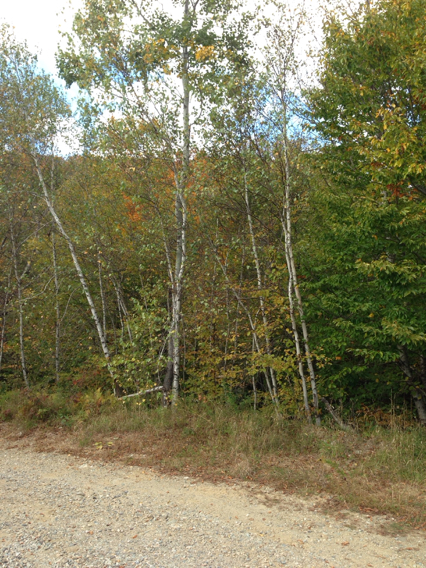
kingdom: Plantae
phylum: Tracheophyta
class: Magnoliopsida
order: Malpighiales
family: Salicaceae
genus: Populus
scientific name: Populus tremuloides
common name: Quaking aspen
